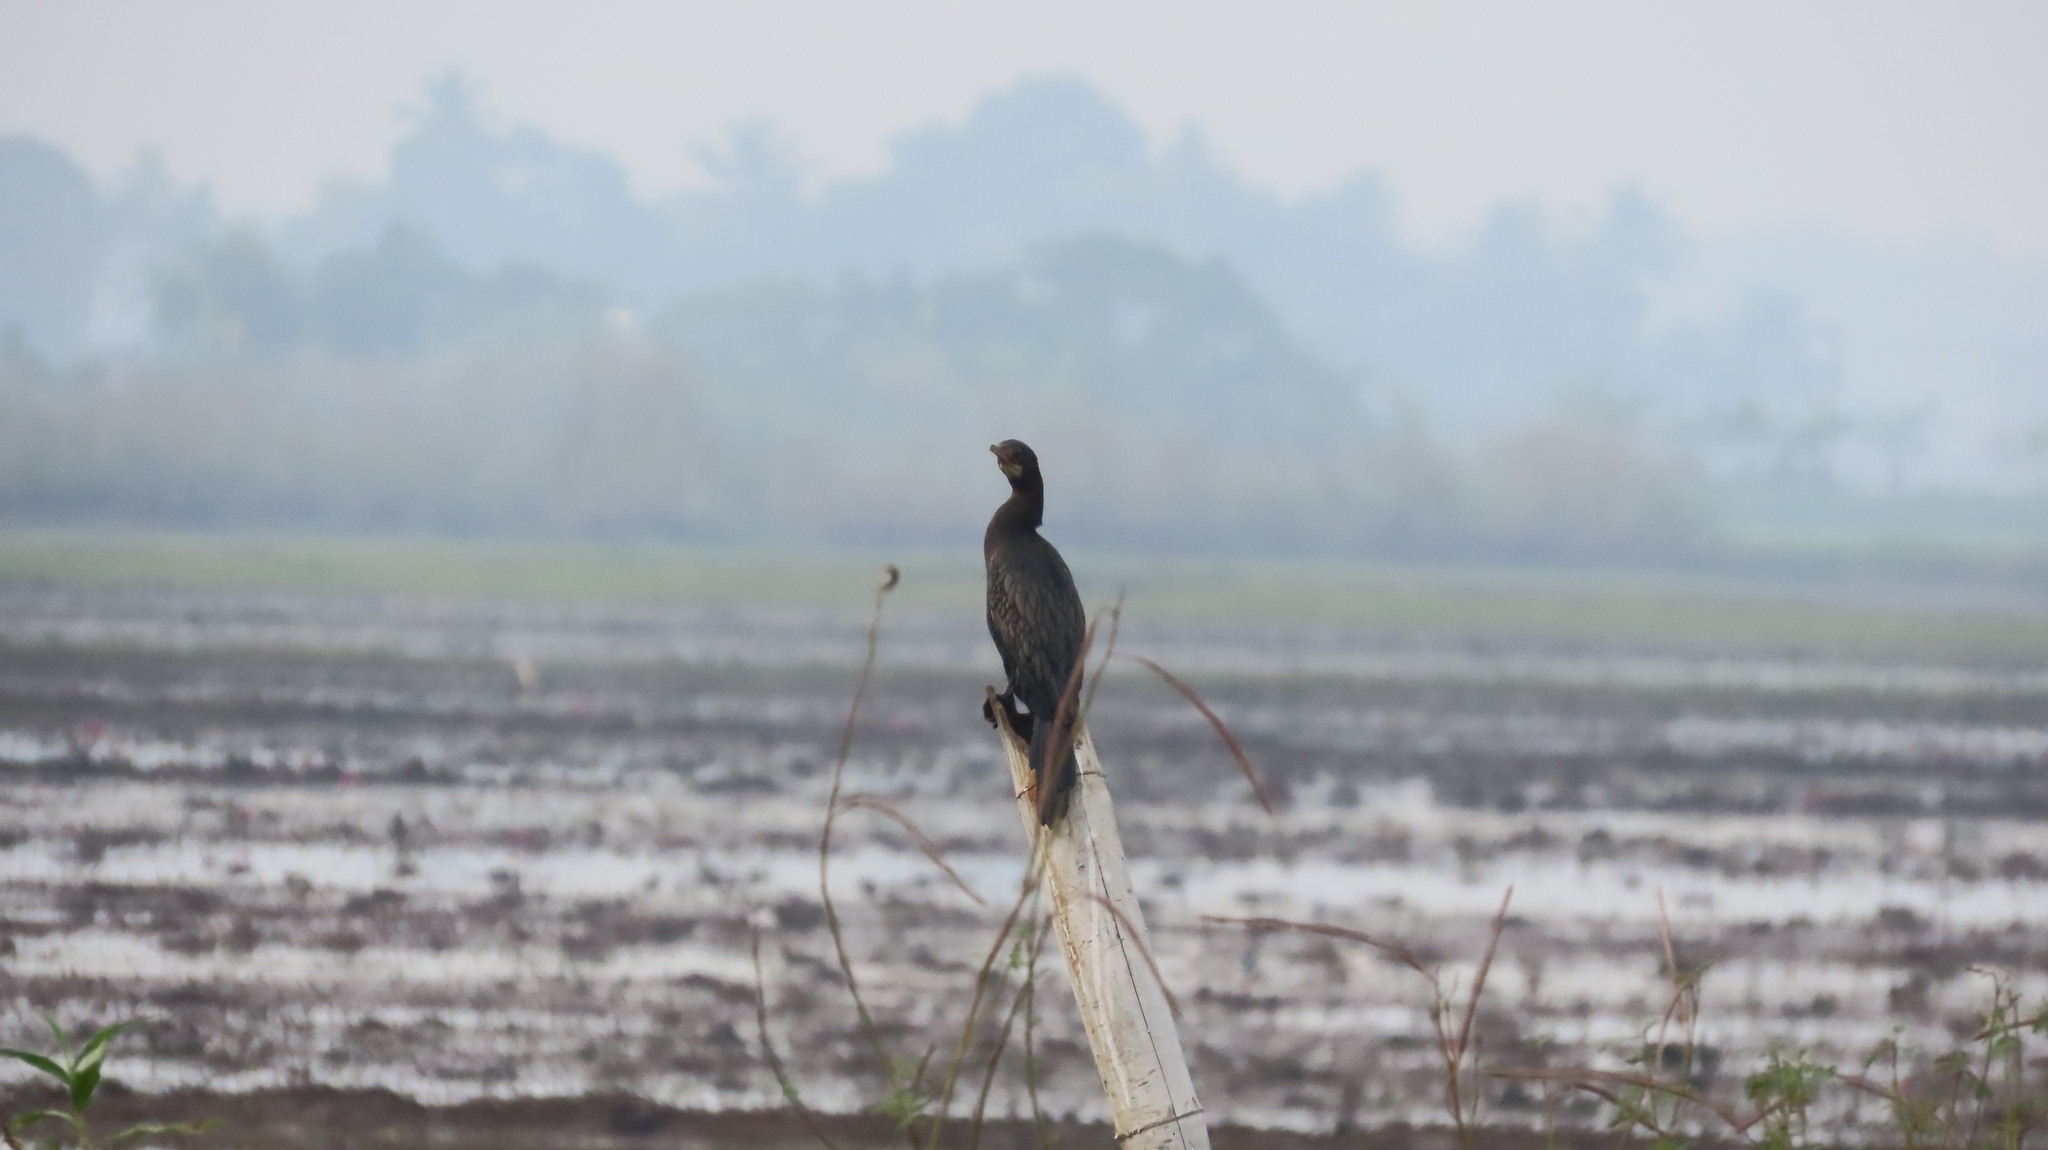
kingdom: Animalia
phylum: Chordata
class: Aves
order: Suliformes
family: Phalacrocoracidae
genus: Microcarbo
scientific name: Microcarbo niger
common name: Little cormorant
